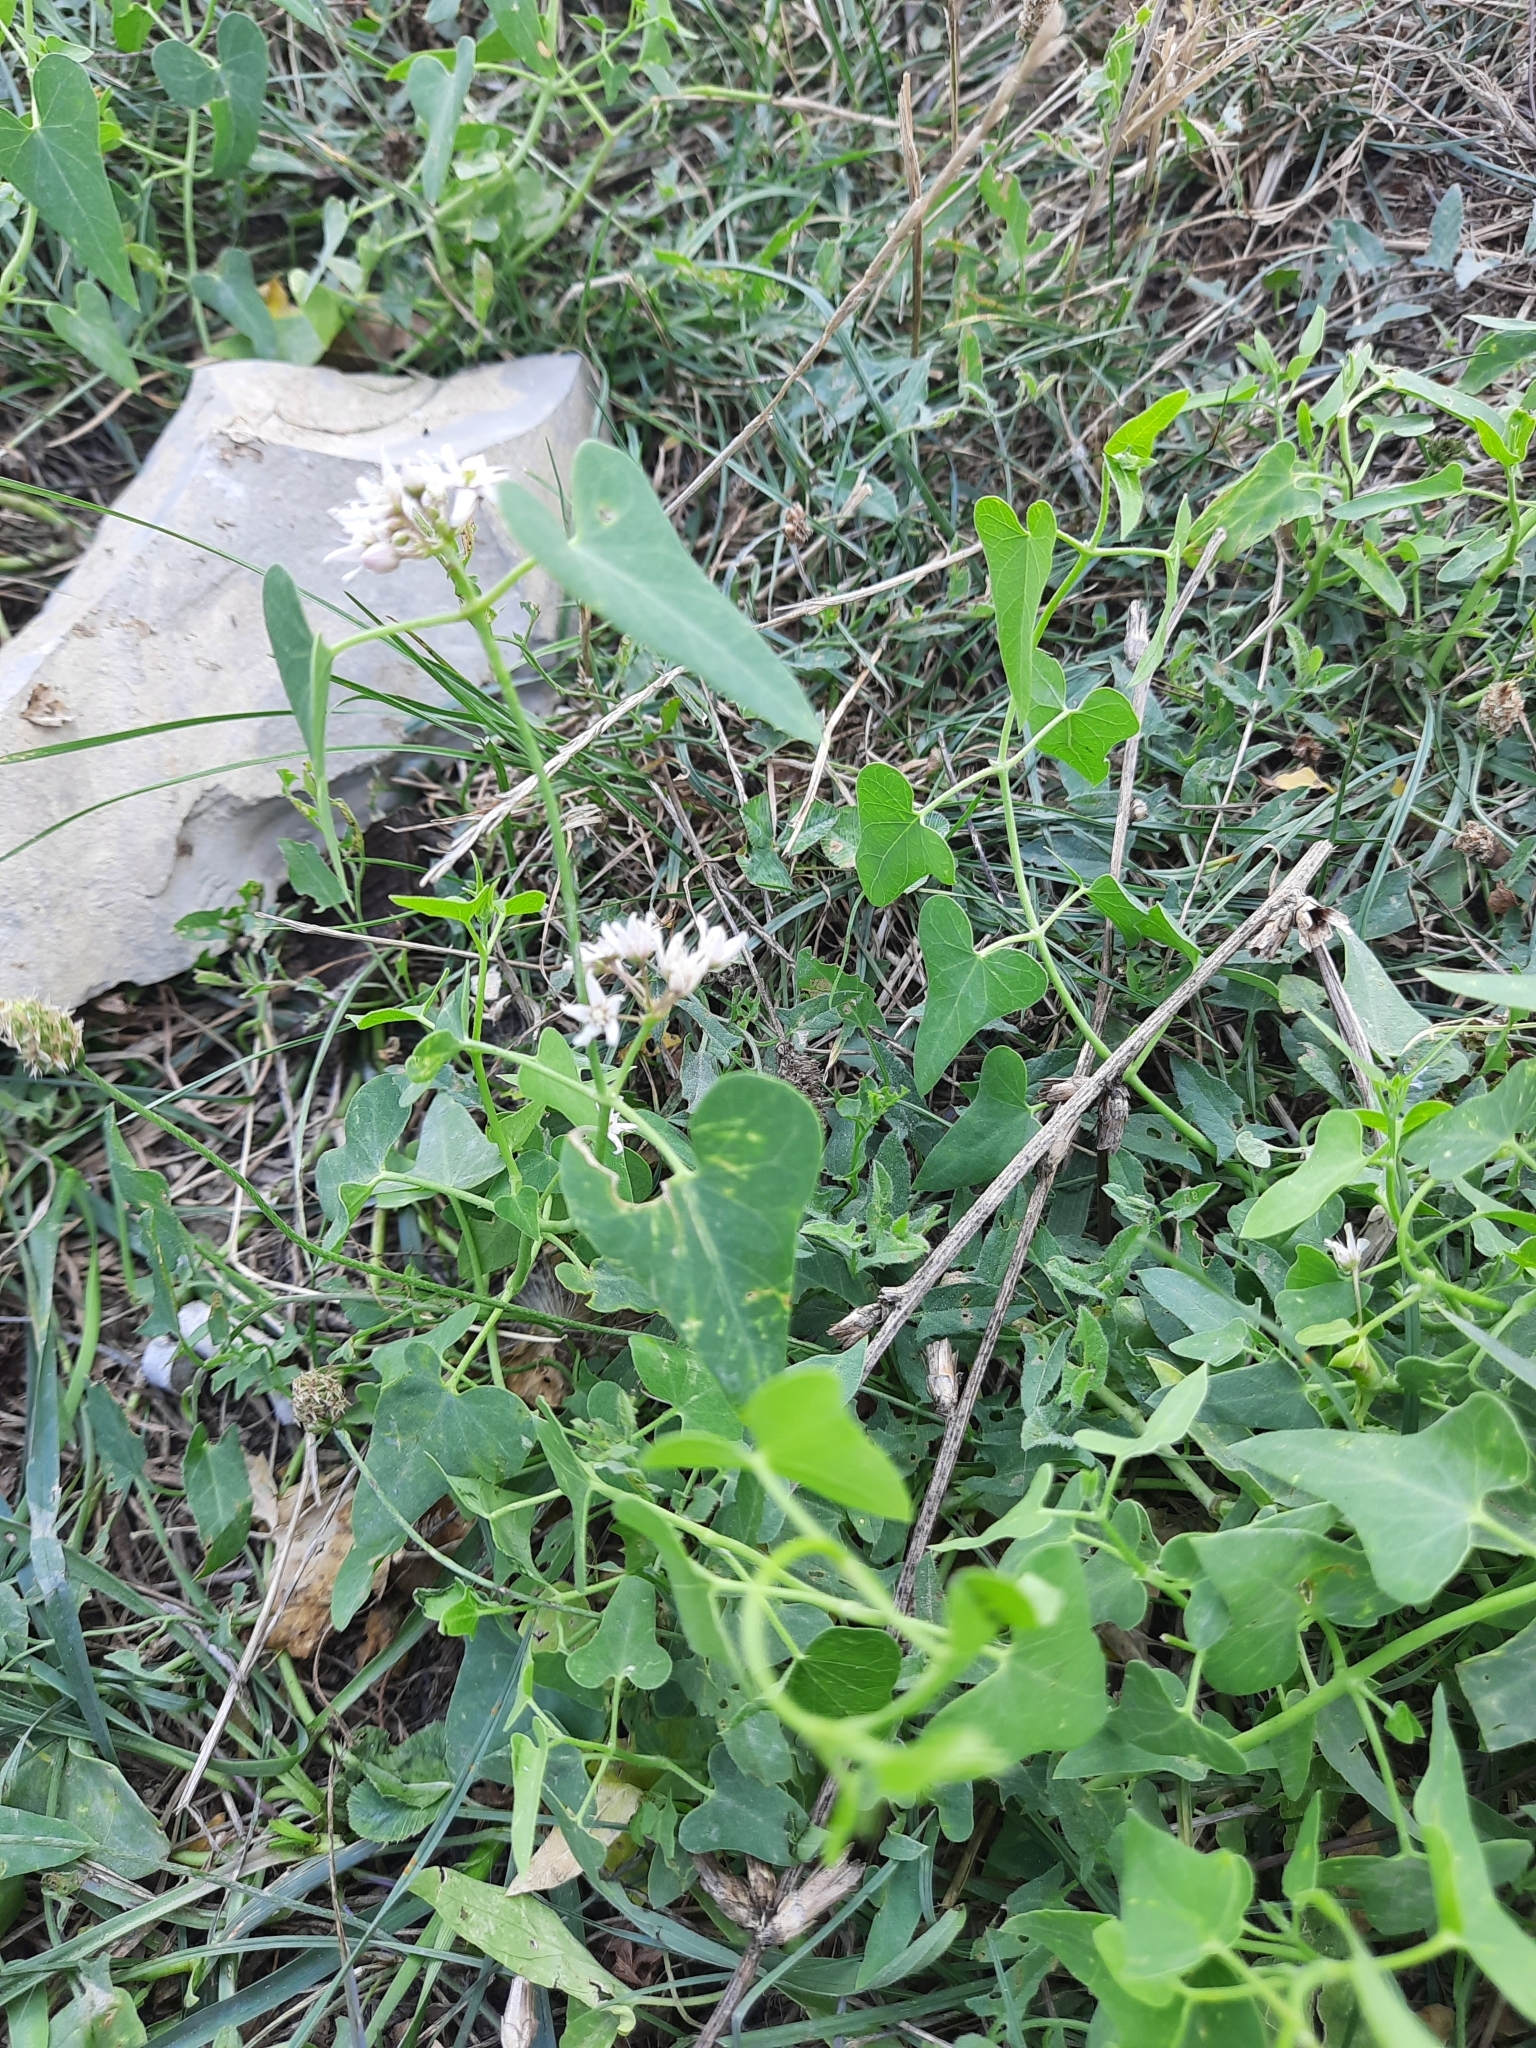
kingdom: Plantae
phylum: Tracheophyta
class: Magnoliopsida
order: Gentianales
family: Apocynaceae
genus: Cynanchum
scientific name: Cynanchum acutum
